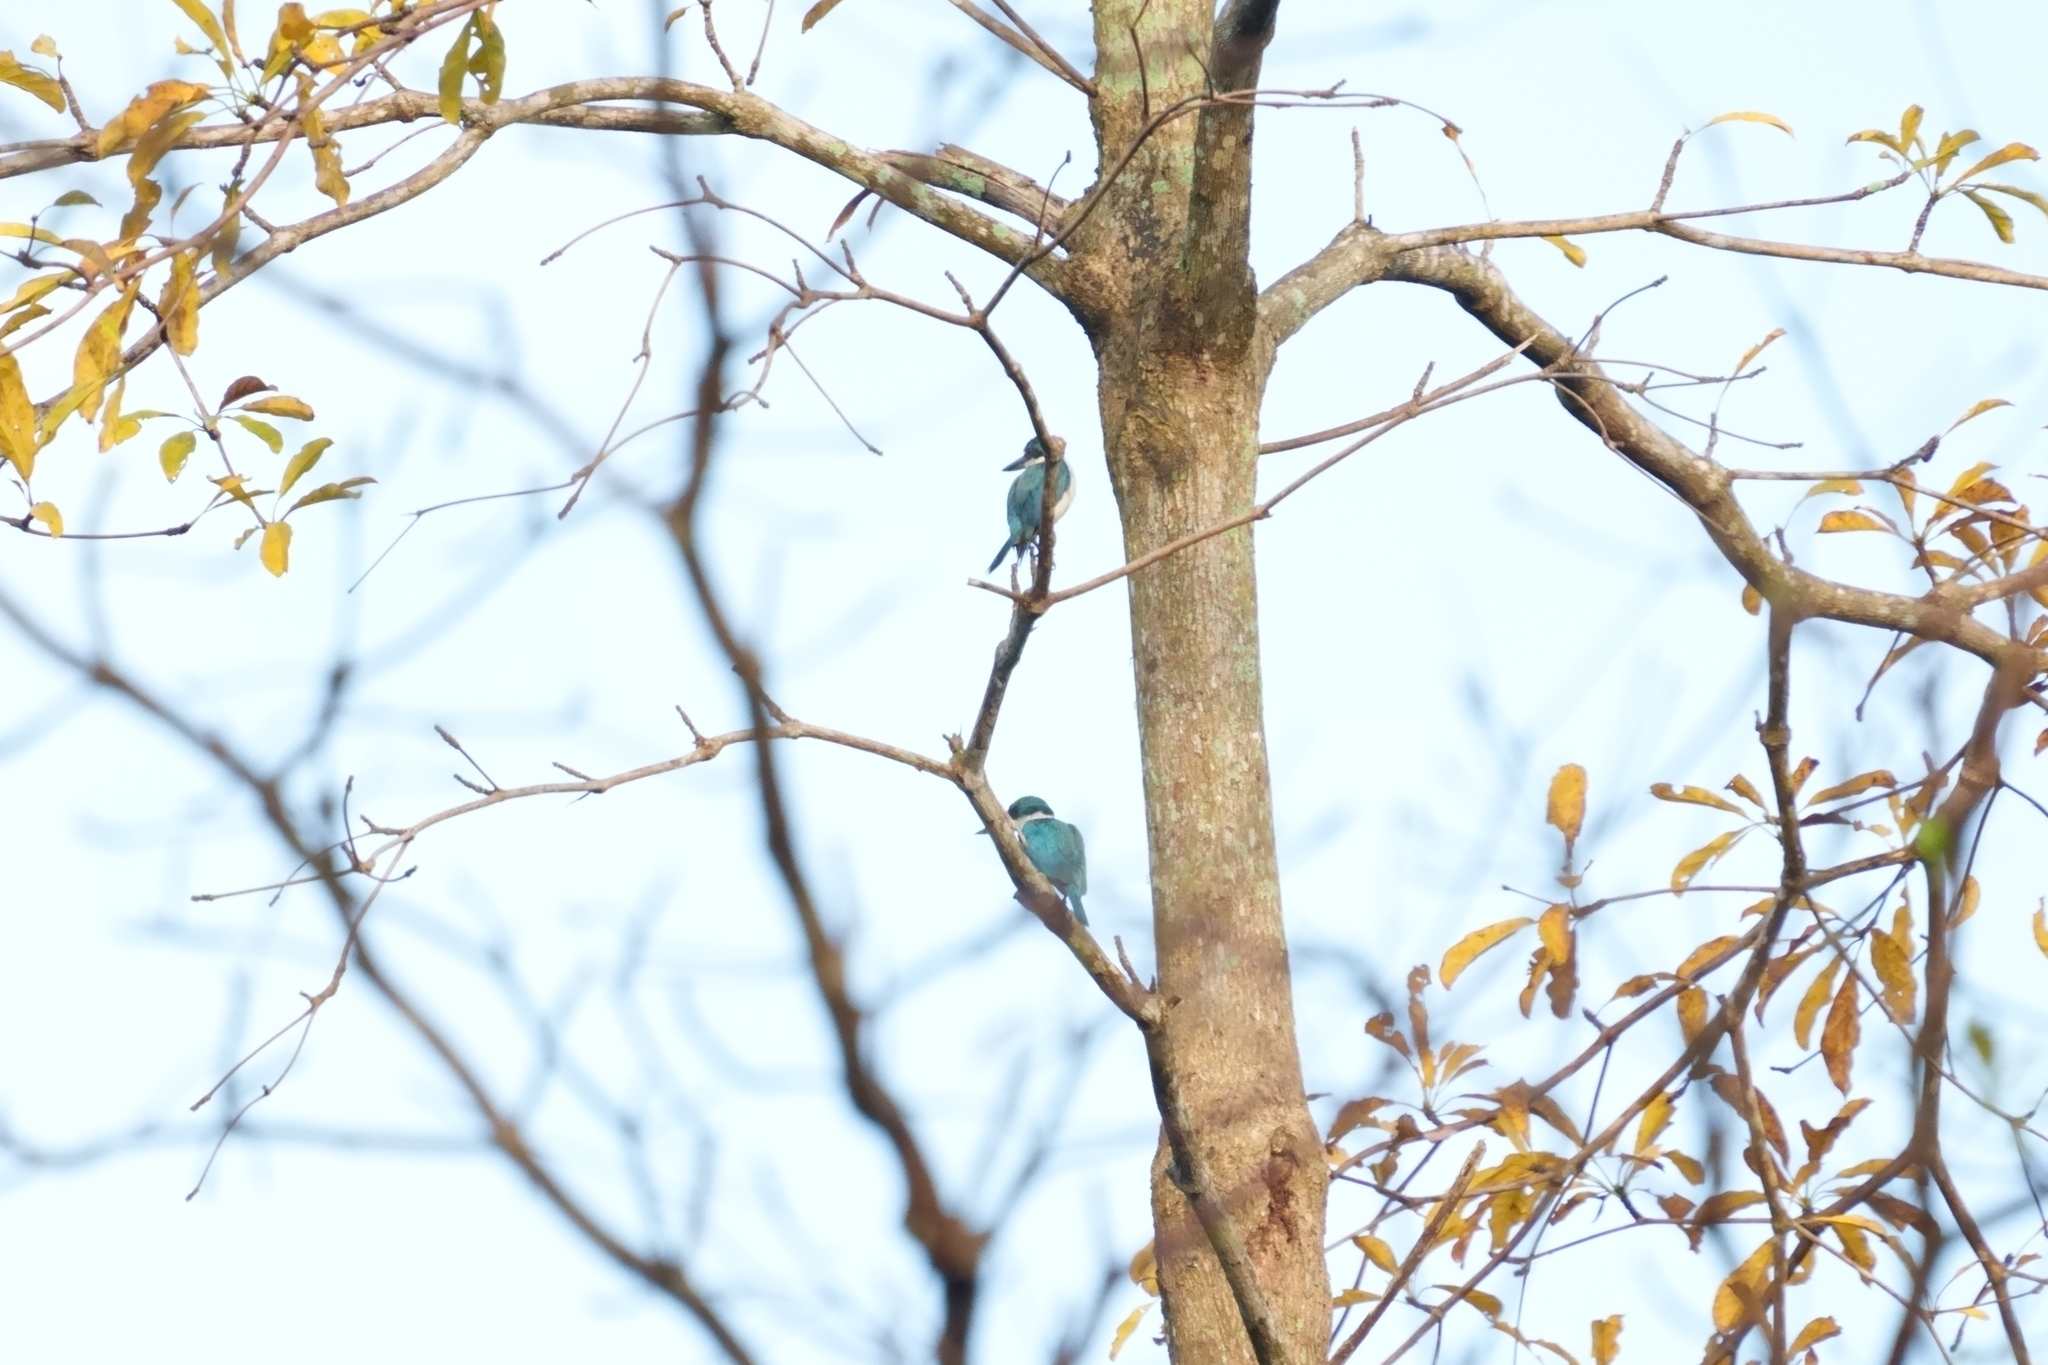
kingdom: Animalia
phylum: Chordata
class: Aves
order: Coraciiformes
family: Alcedinidae
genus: Todiramphus
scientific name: Todiramphus chloris
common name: Collared kingfisher
